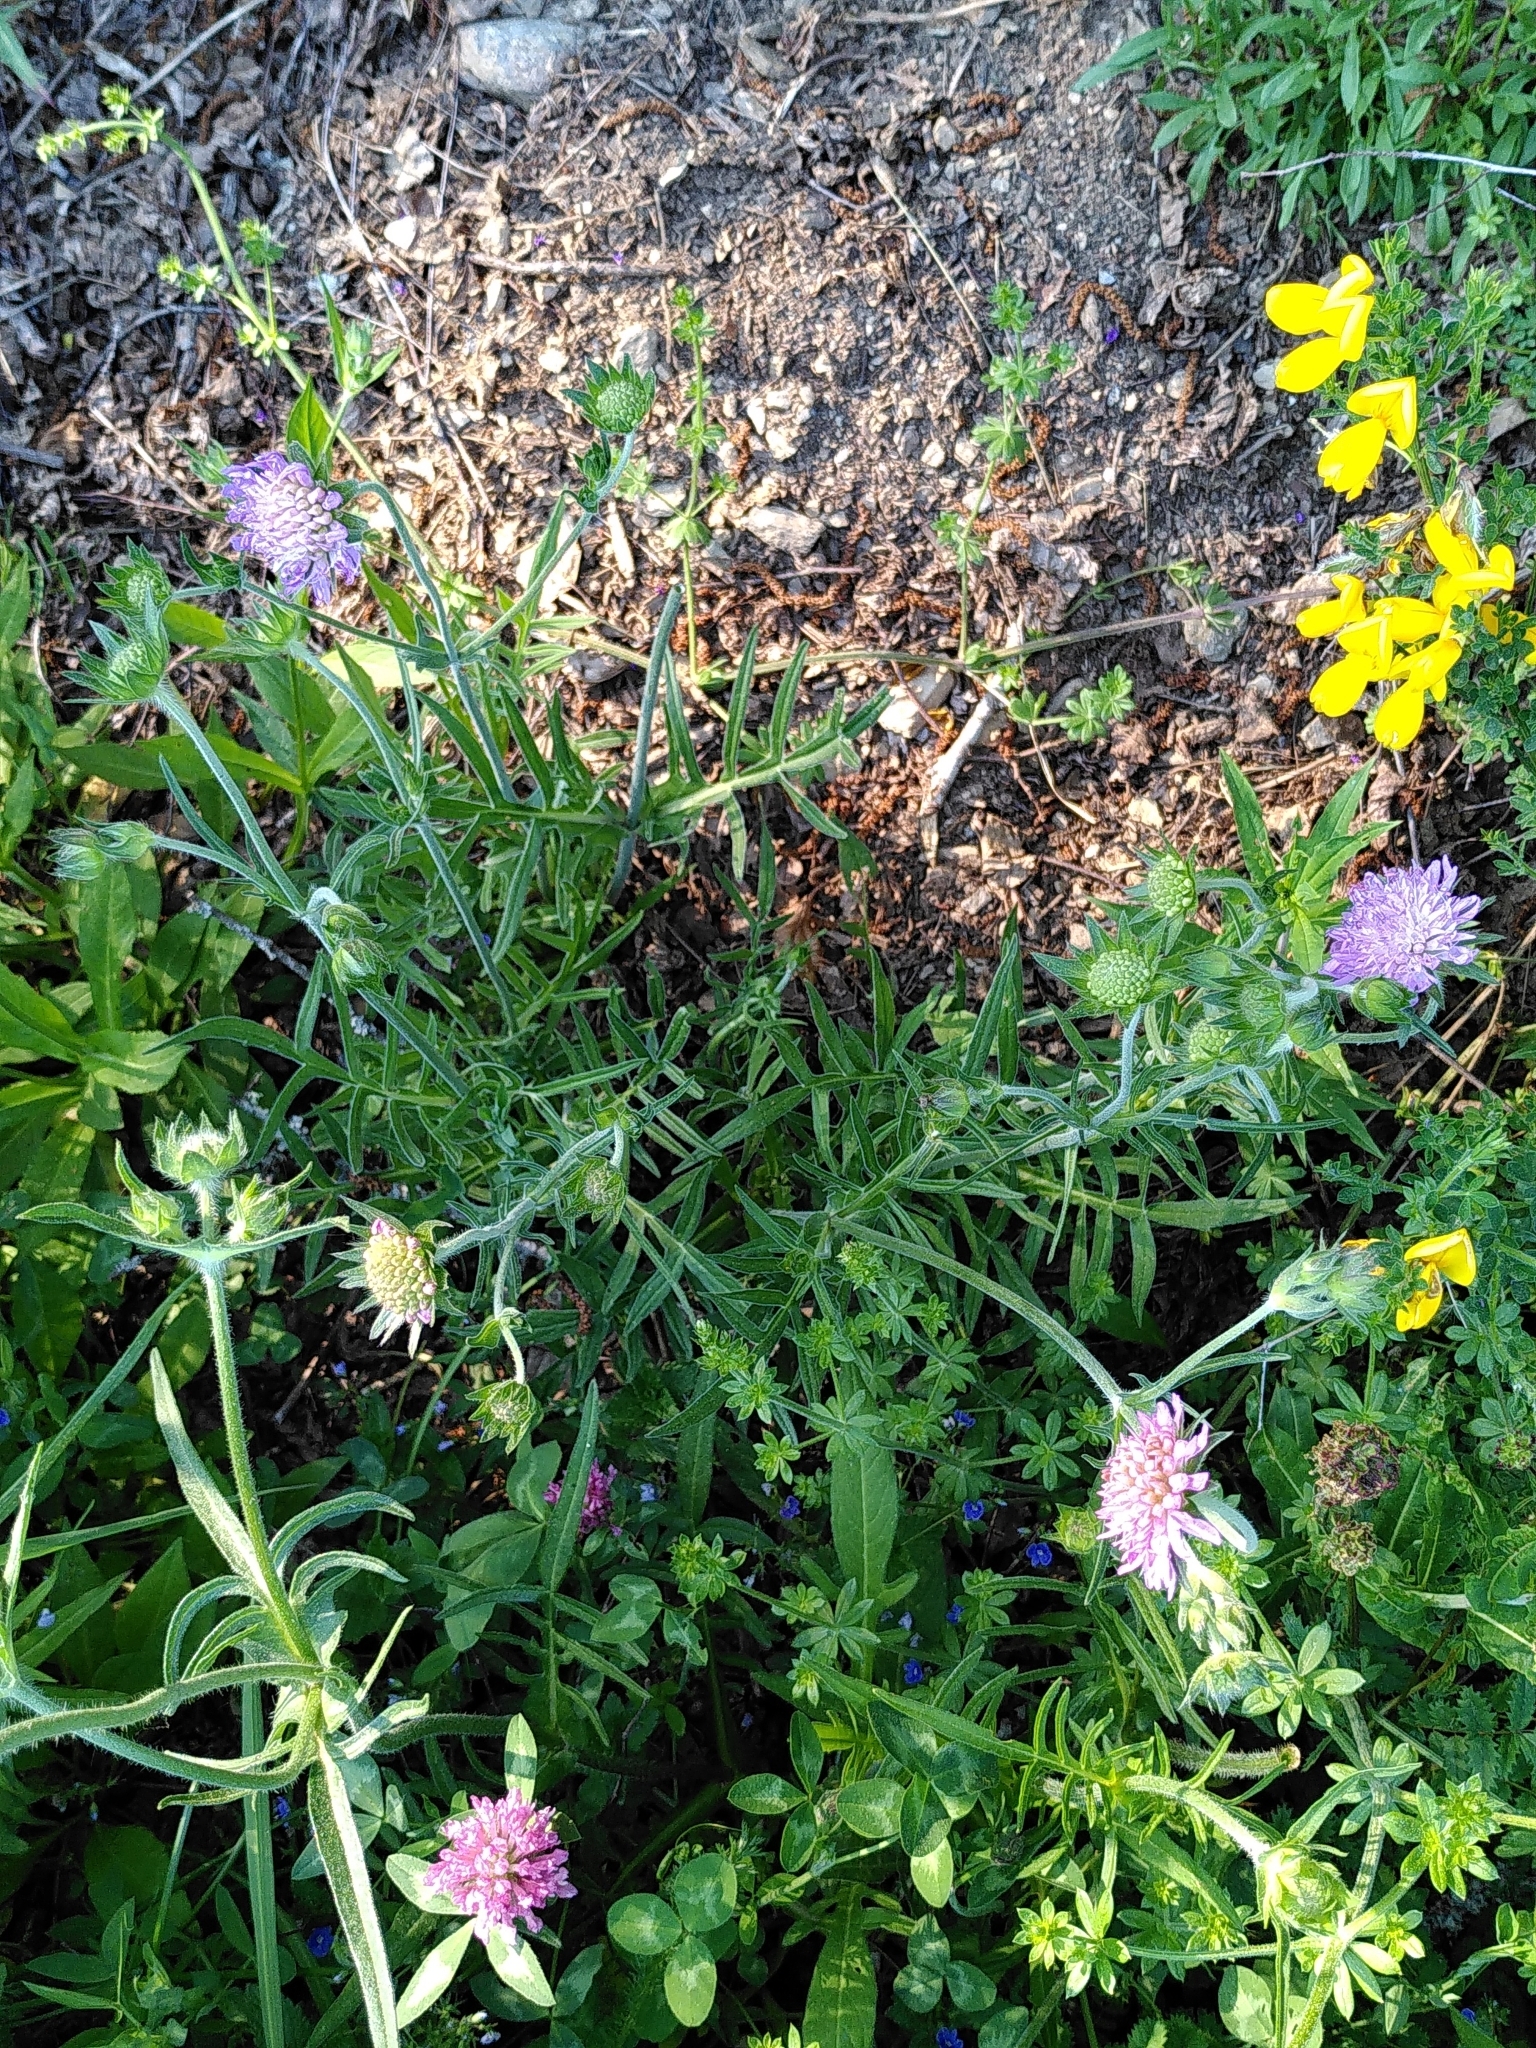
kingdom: Plantae
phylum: Tracheophyta
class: Magnoliopsida
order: Dipsacales
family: Caprifoliaceae
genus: Knautia
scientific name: Knautia arvensis
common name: Field scabiosa
